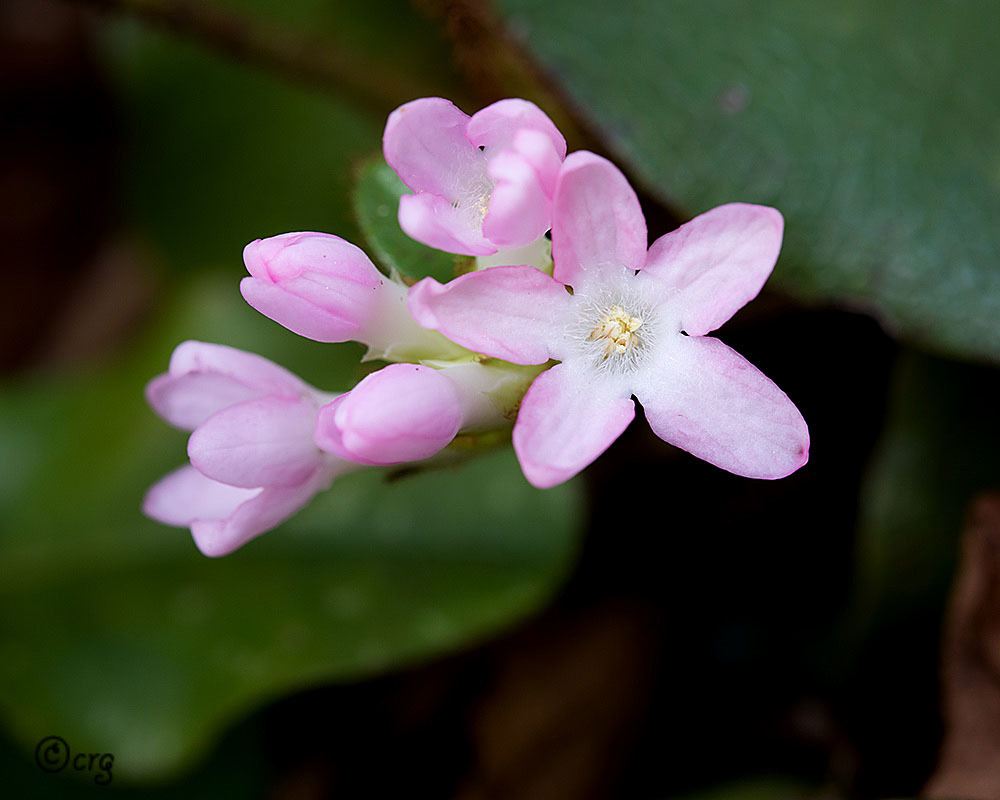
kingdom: Plantae
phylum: Tracheophyta
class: Magnoliopsida
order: Ericales
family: Ericaceae
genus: Epigaea
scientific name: Epigaea repens
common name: Gravelroot
